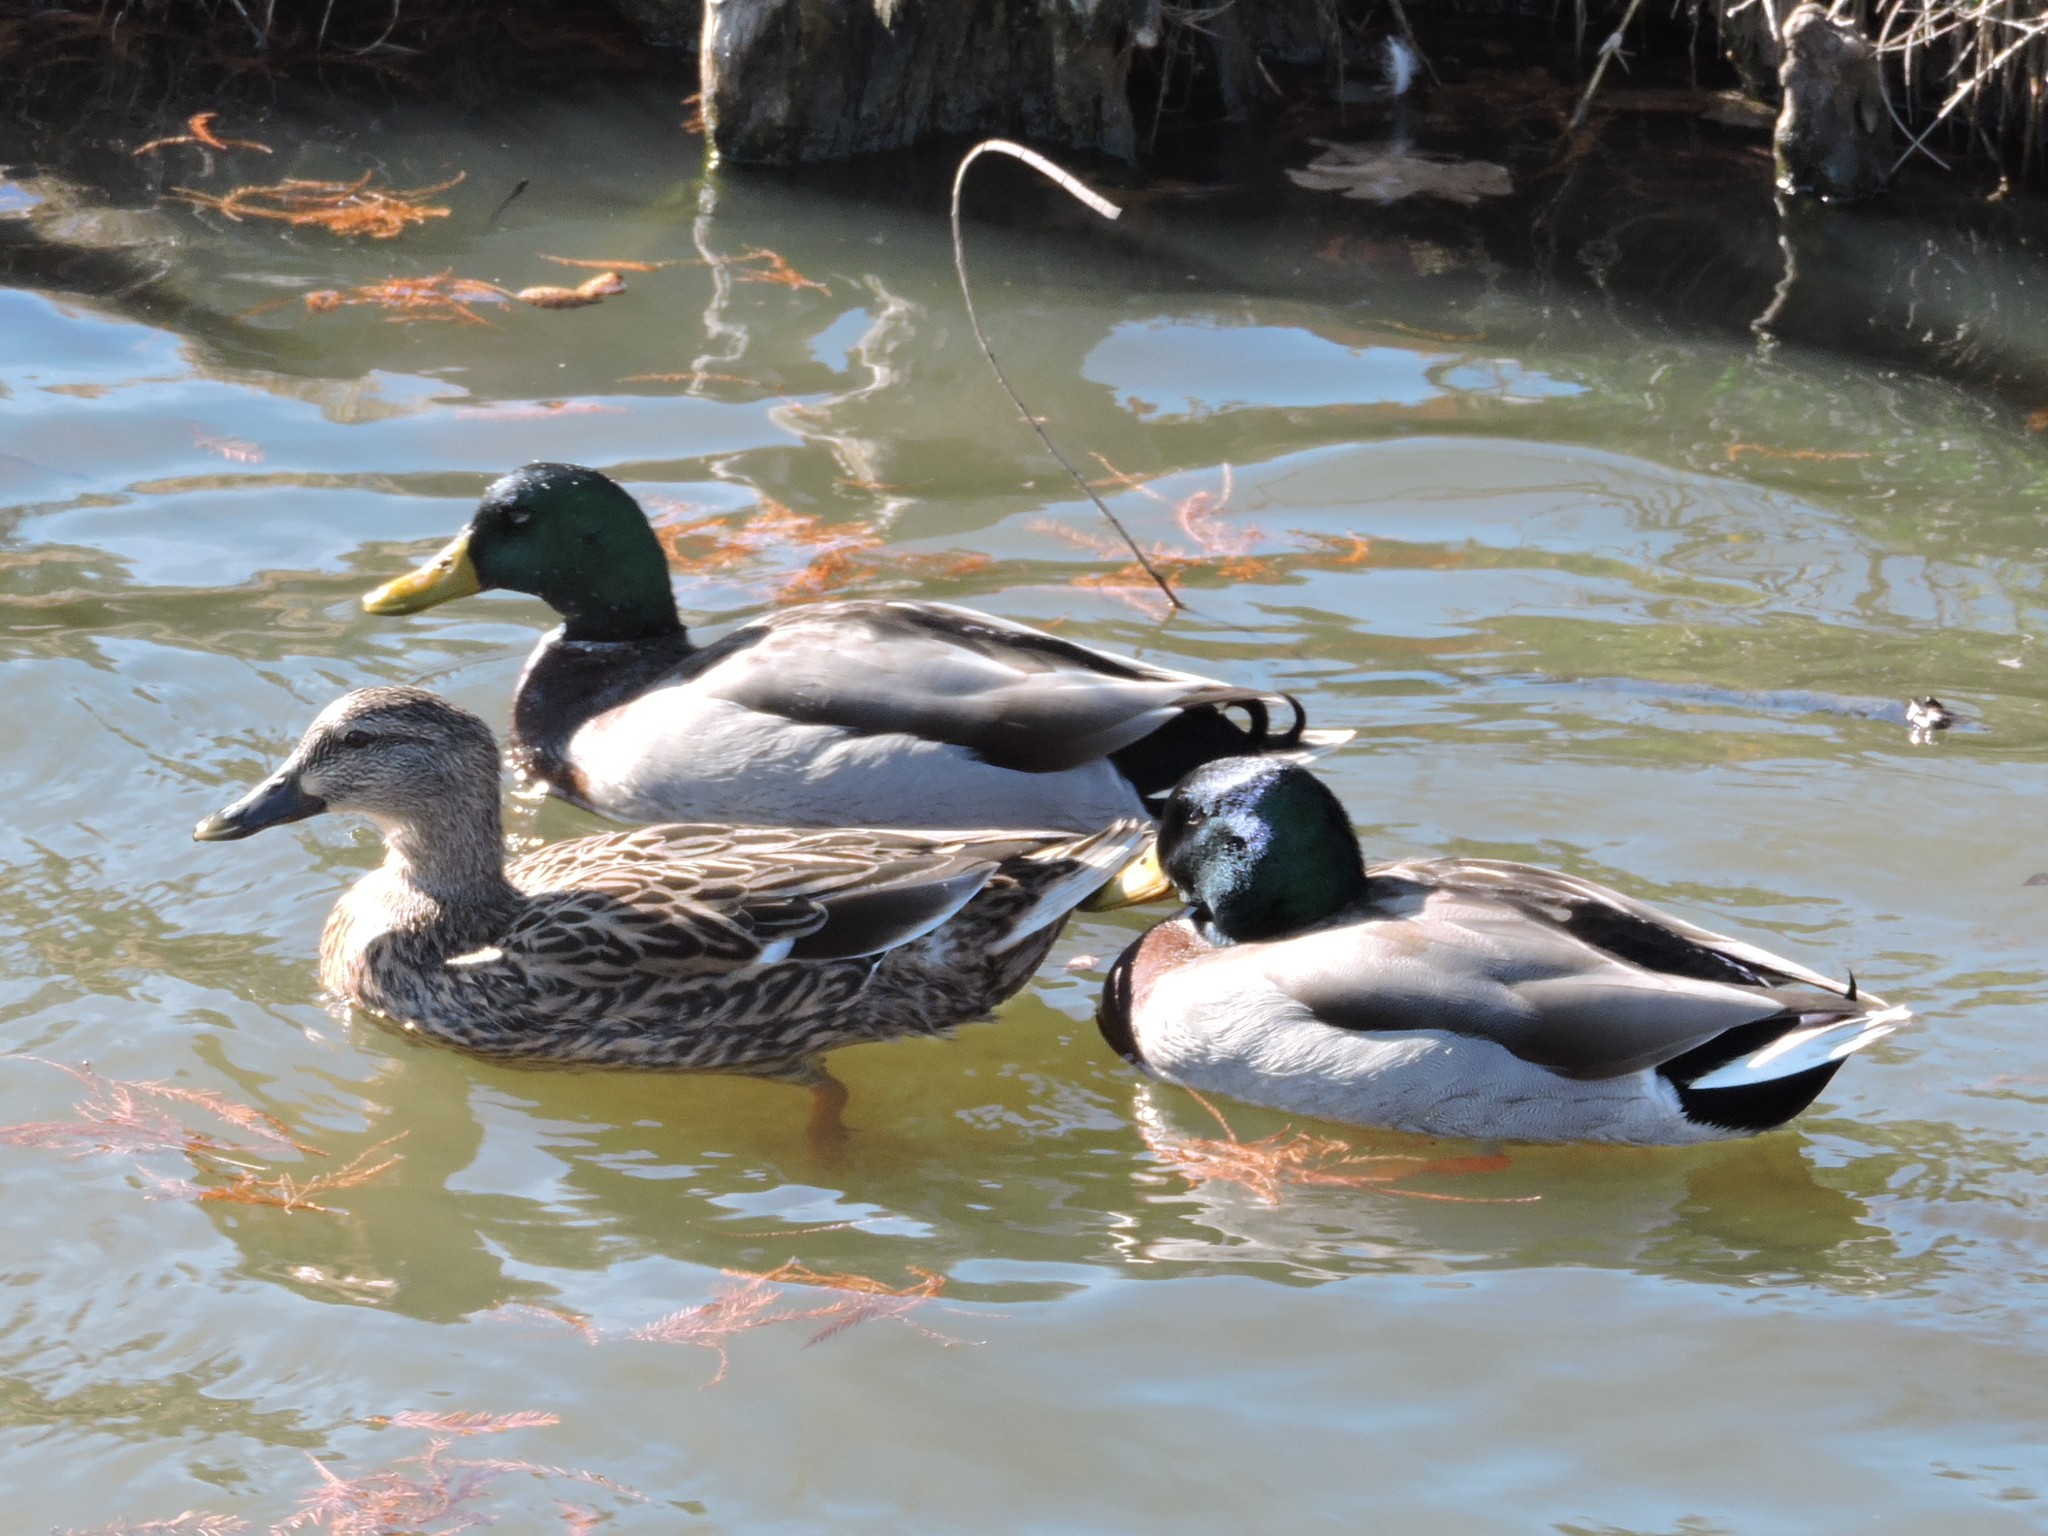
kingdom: Animalia
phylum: Chordata
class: Aves
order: Anseriformes
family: Anatidae
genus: Anas
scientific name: Anas platyrhynchos
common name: Mallard
